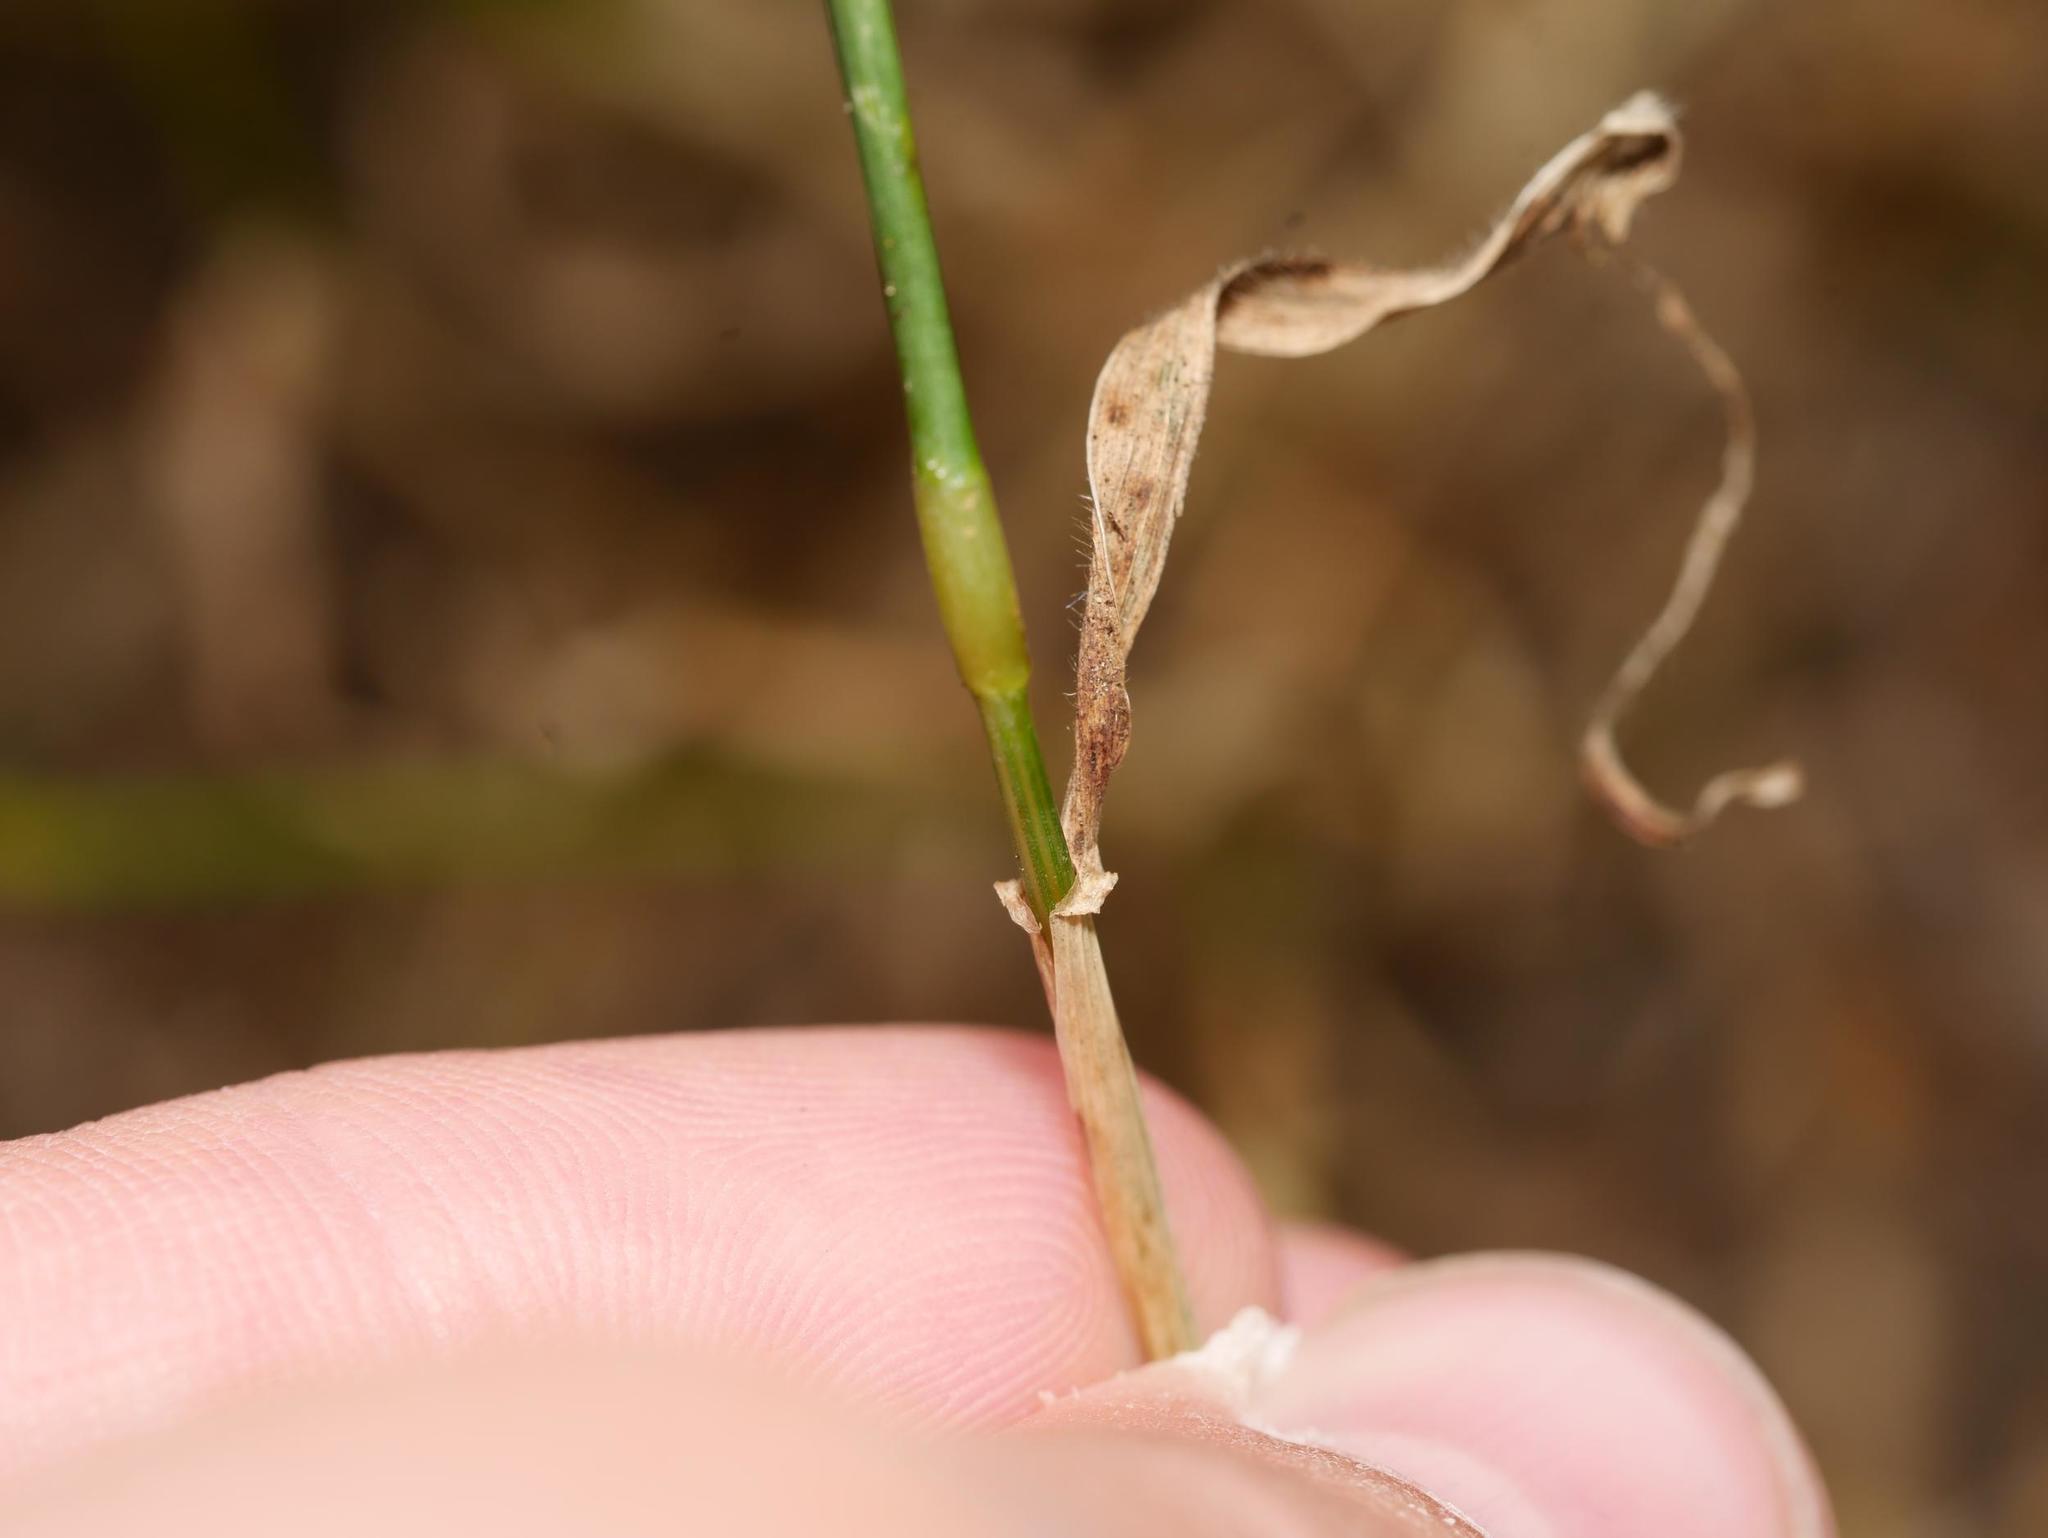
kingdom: Plantae
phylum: Tracheophyta
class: Liliopsida
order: Poales
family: Poaceae
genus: Hordeum
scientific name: Hordeum murinum
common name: Wall barley
